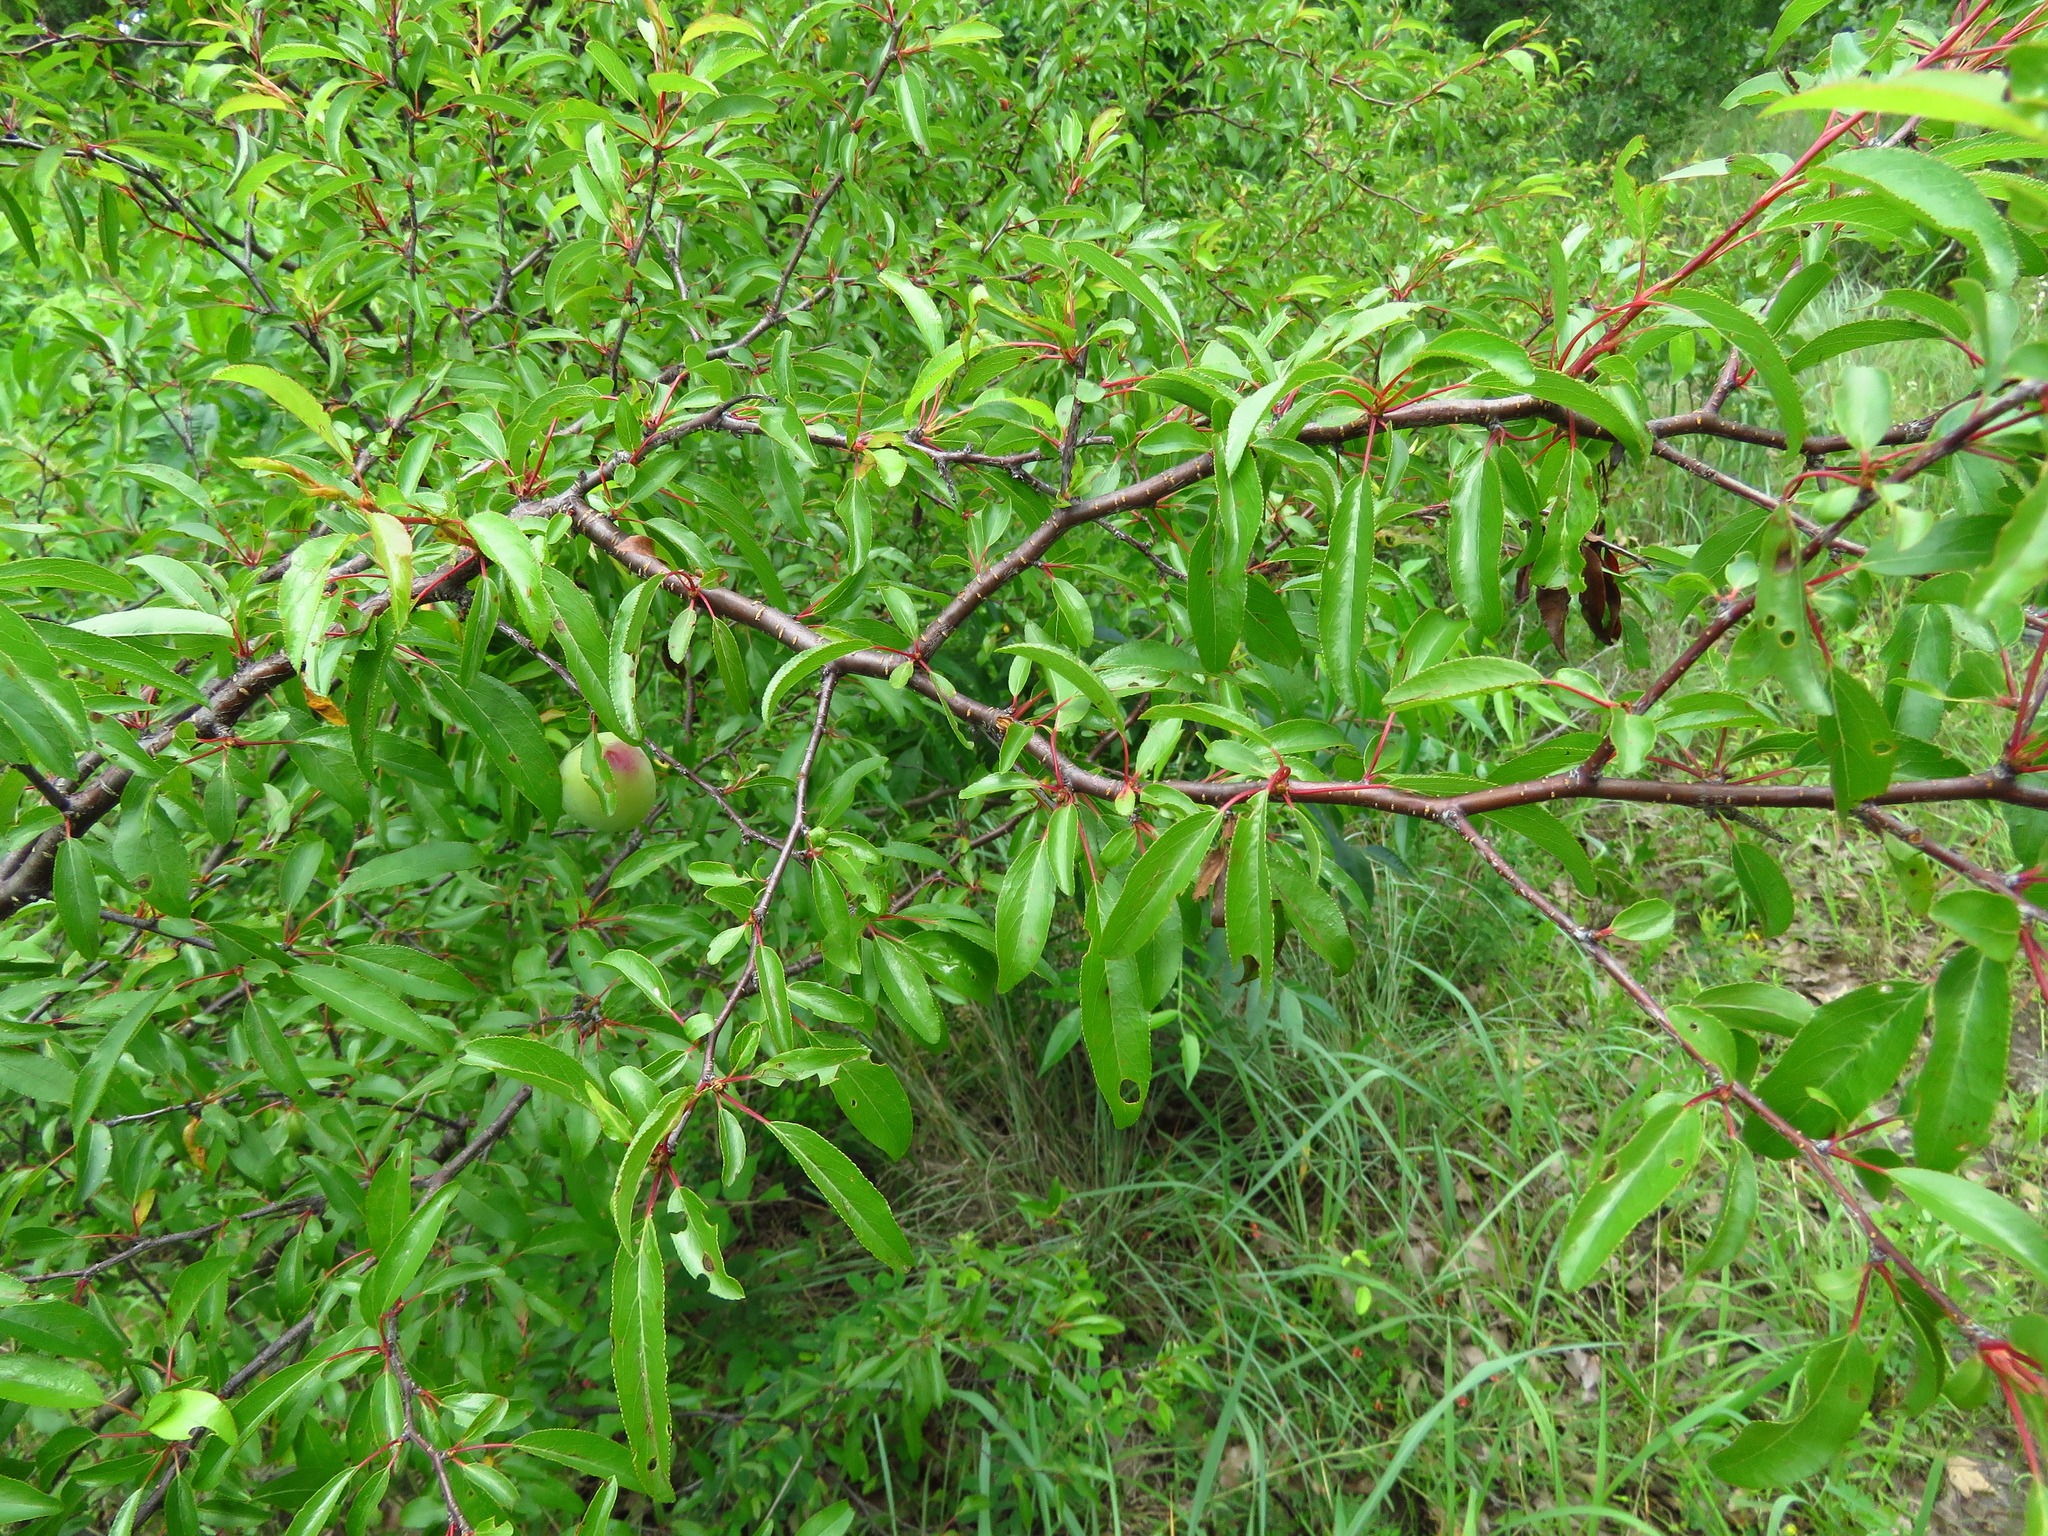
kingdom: Plantae
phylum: Tracheophyta
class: Magnoliopsida
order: Rosales
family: Rosaceae
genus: Prunus
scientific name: Prunus angustifolia
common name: Cherokee plum
